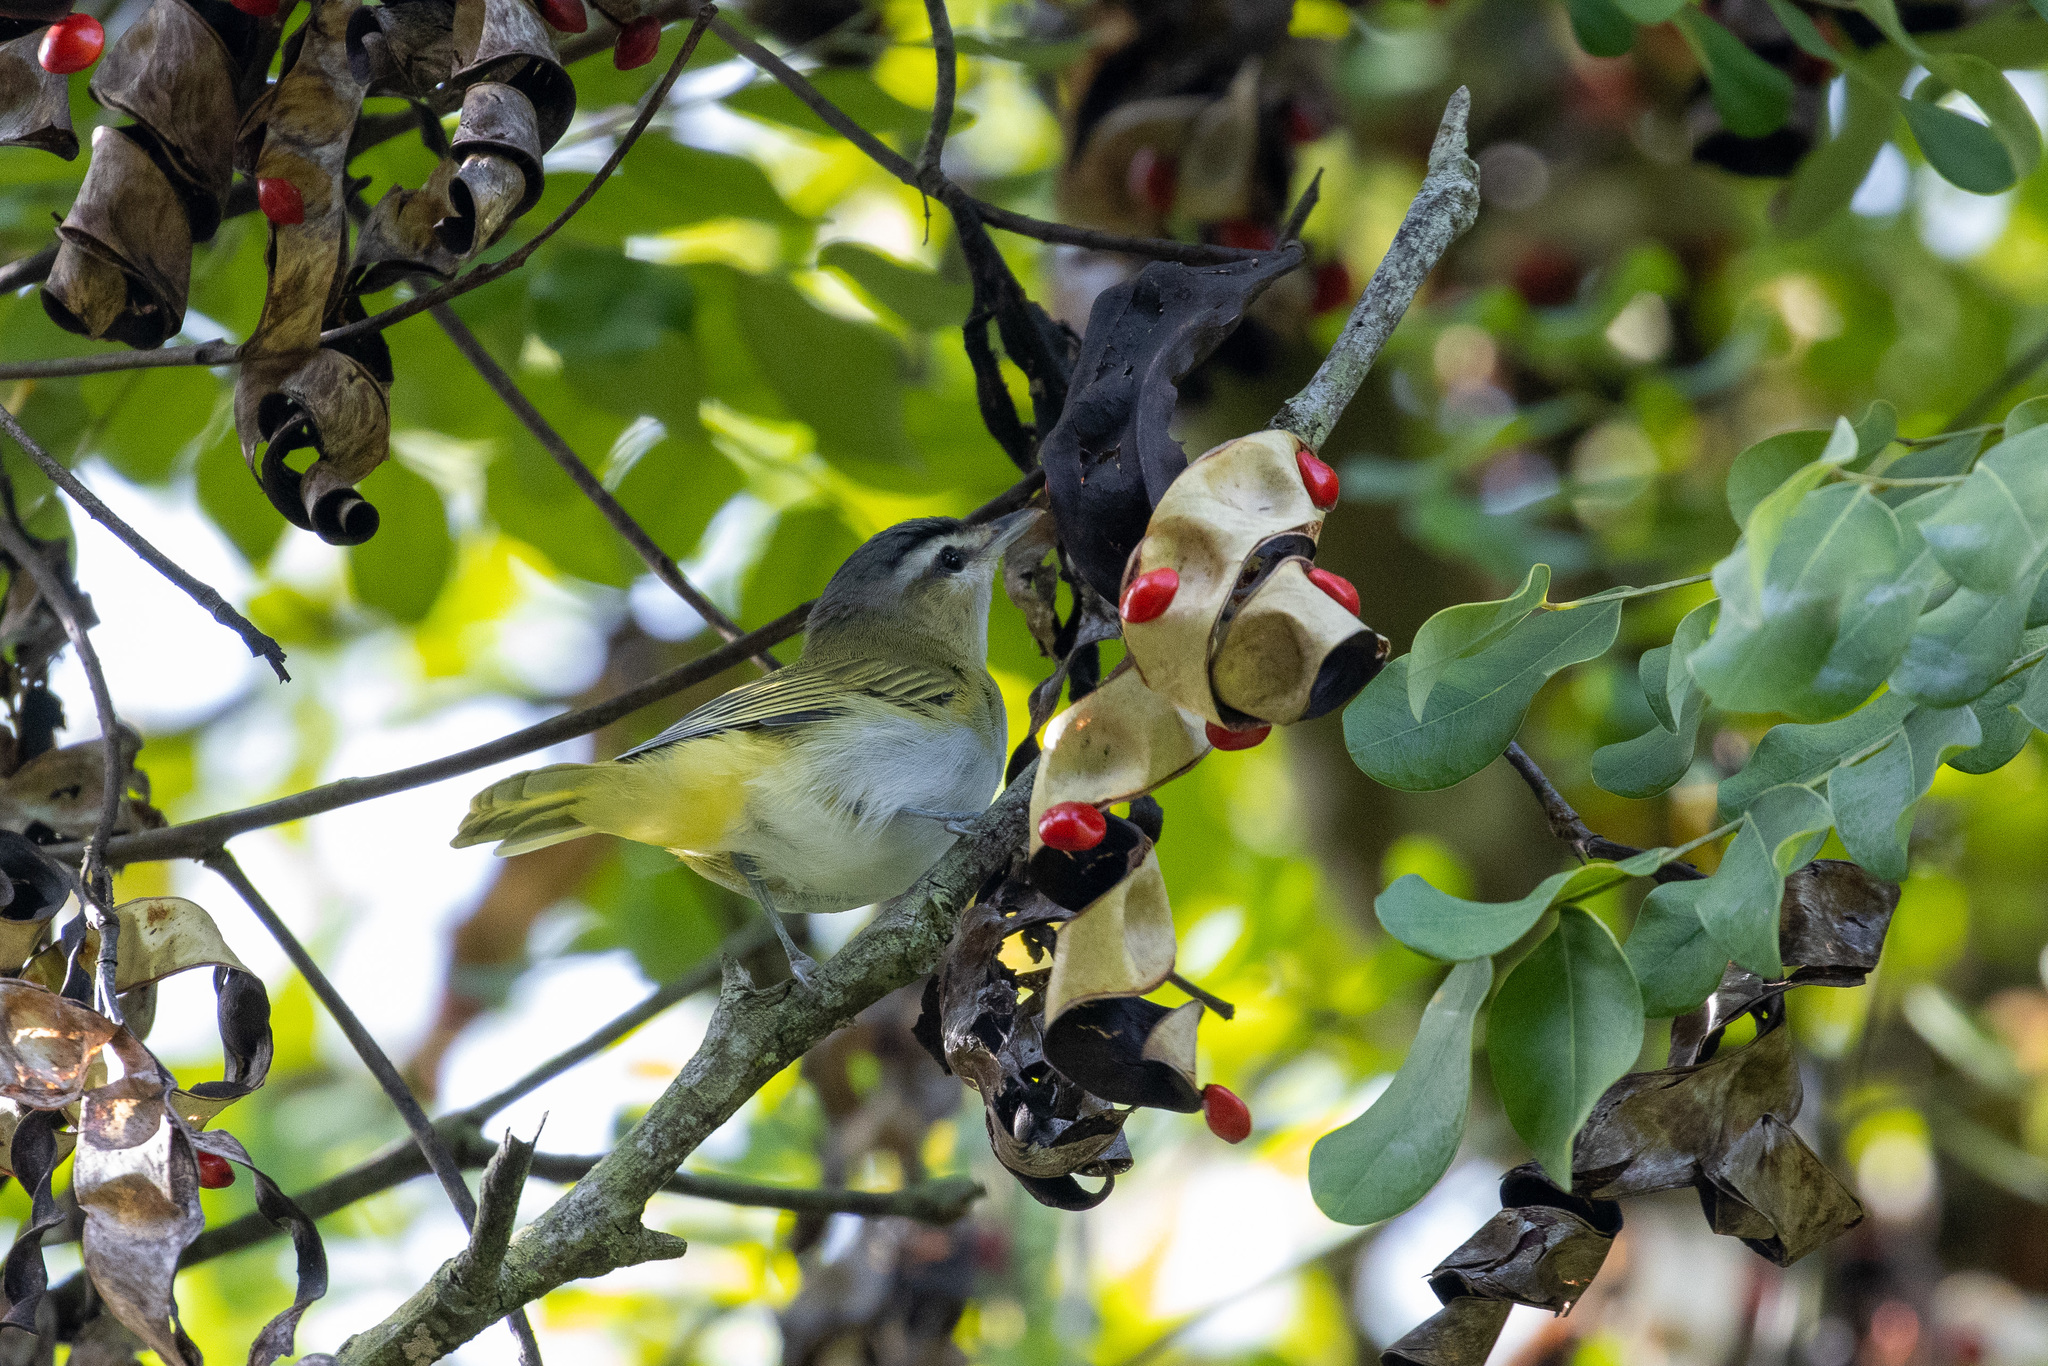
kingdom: Animalia
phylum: Chordata
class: Aves
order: Passeriformes
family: Vireonidae
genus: Vireo
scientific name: Vireo olivaceus
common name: Red-eyed vireo
